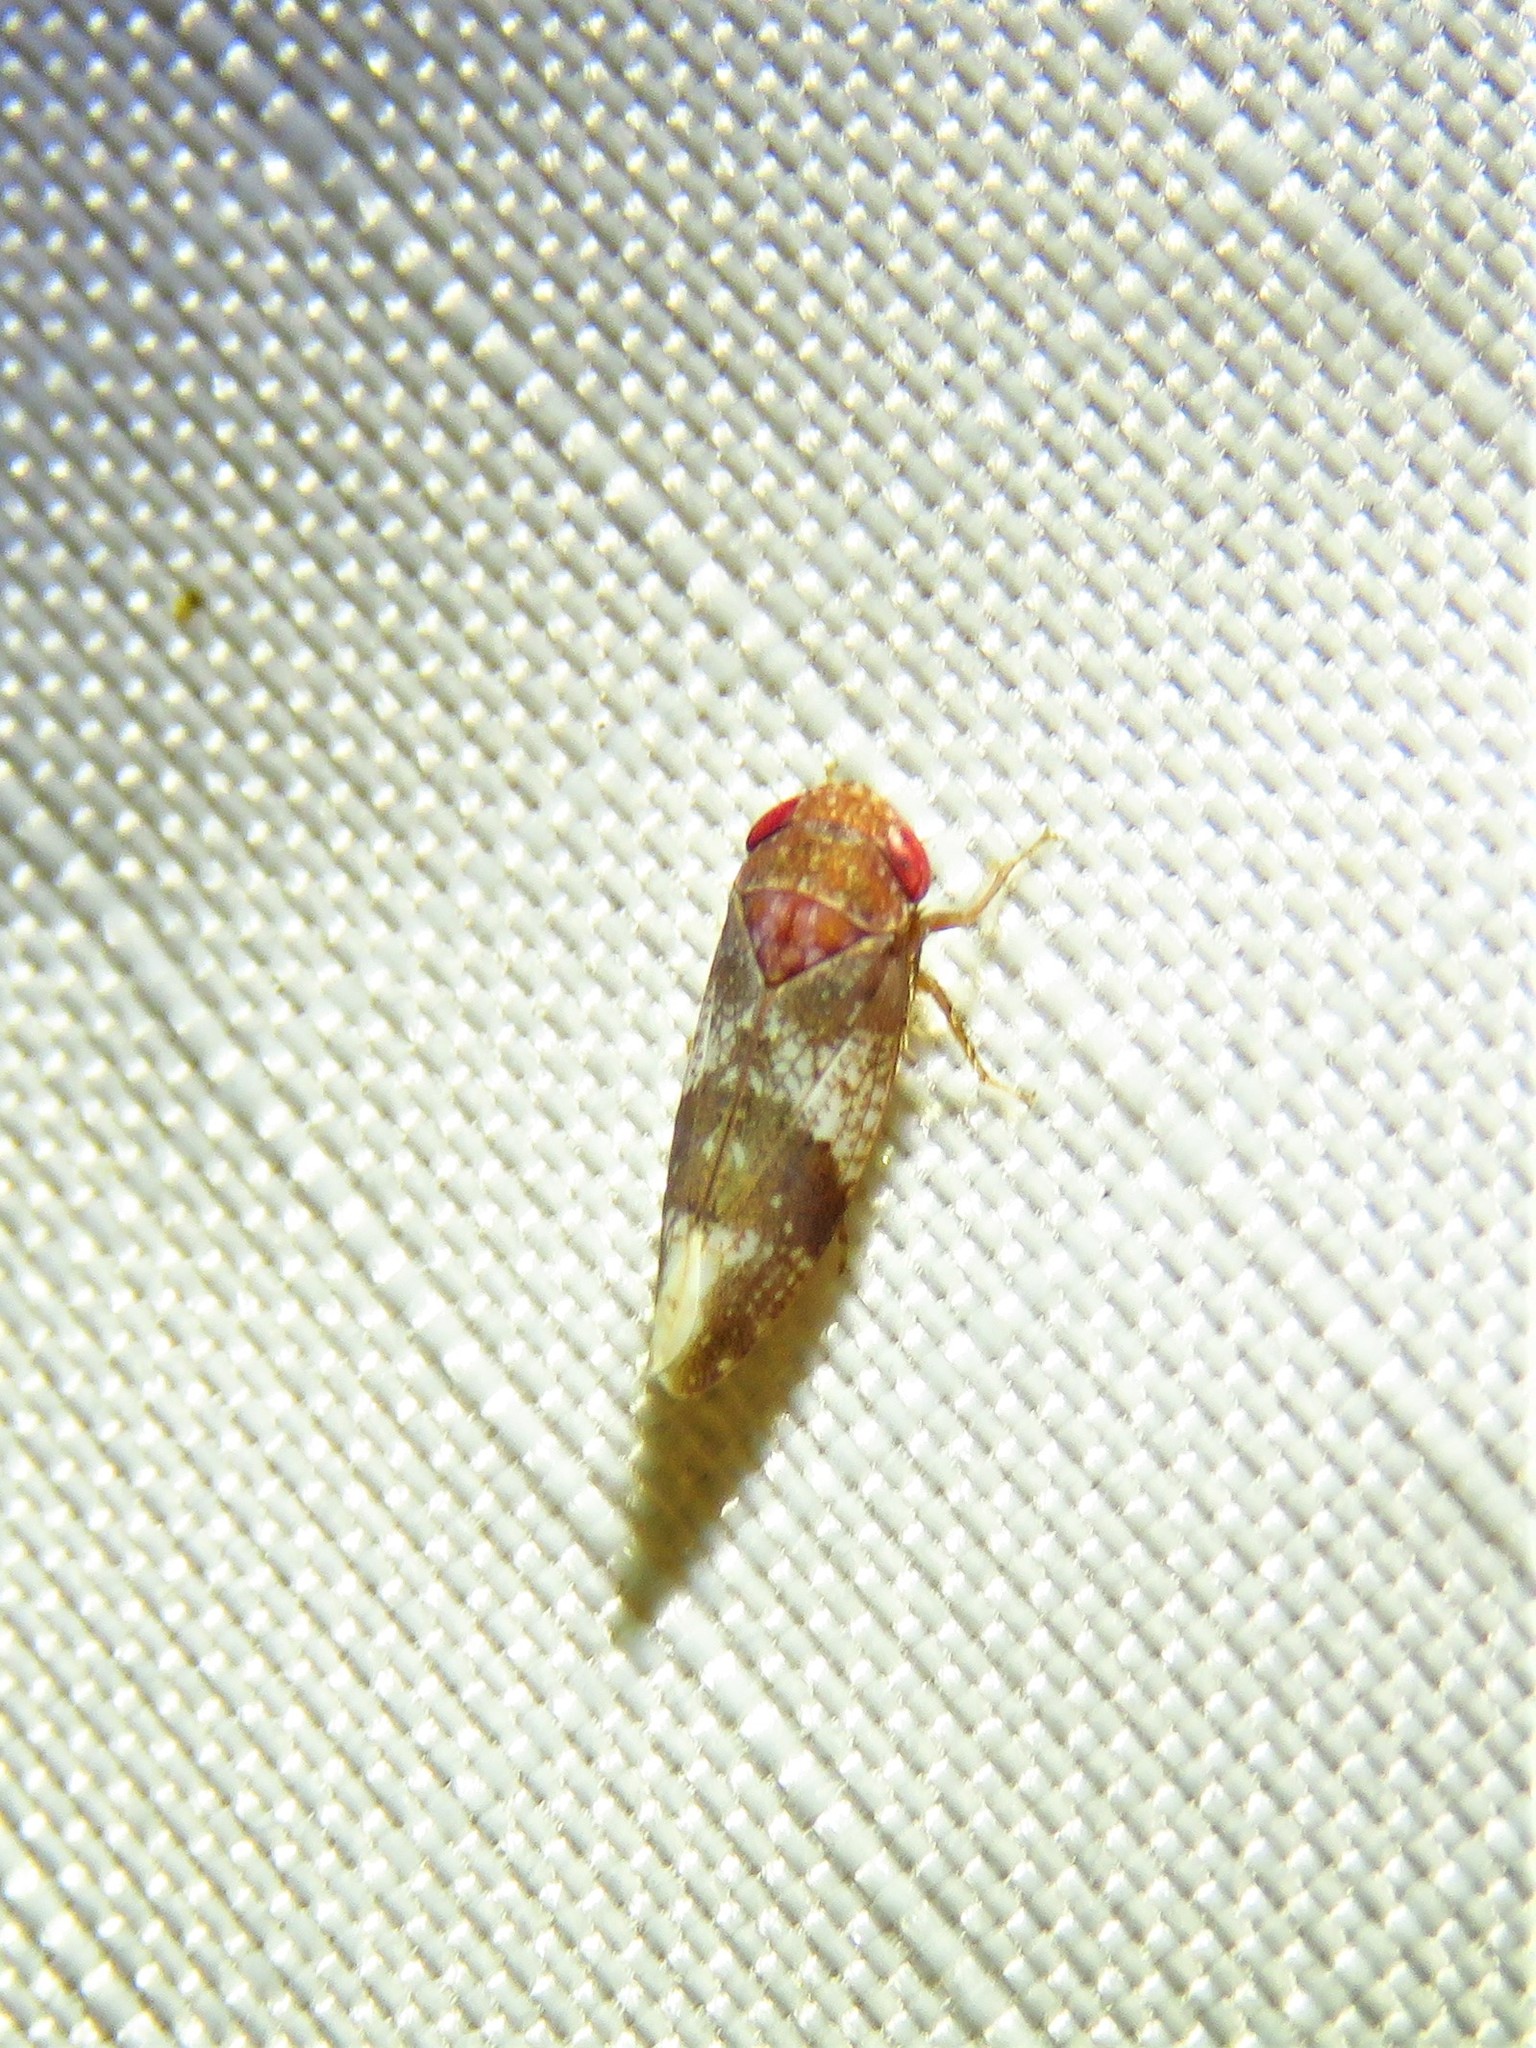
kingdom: Animalia
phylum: Arthropoda
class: Insecta
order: Hemiptera
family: Cicadellidae
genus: Norvellina
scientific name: Norvellina helenae
